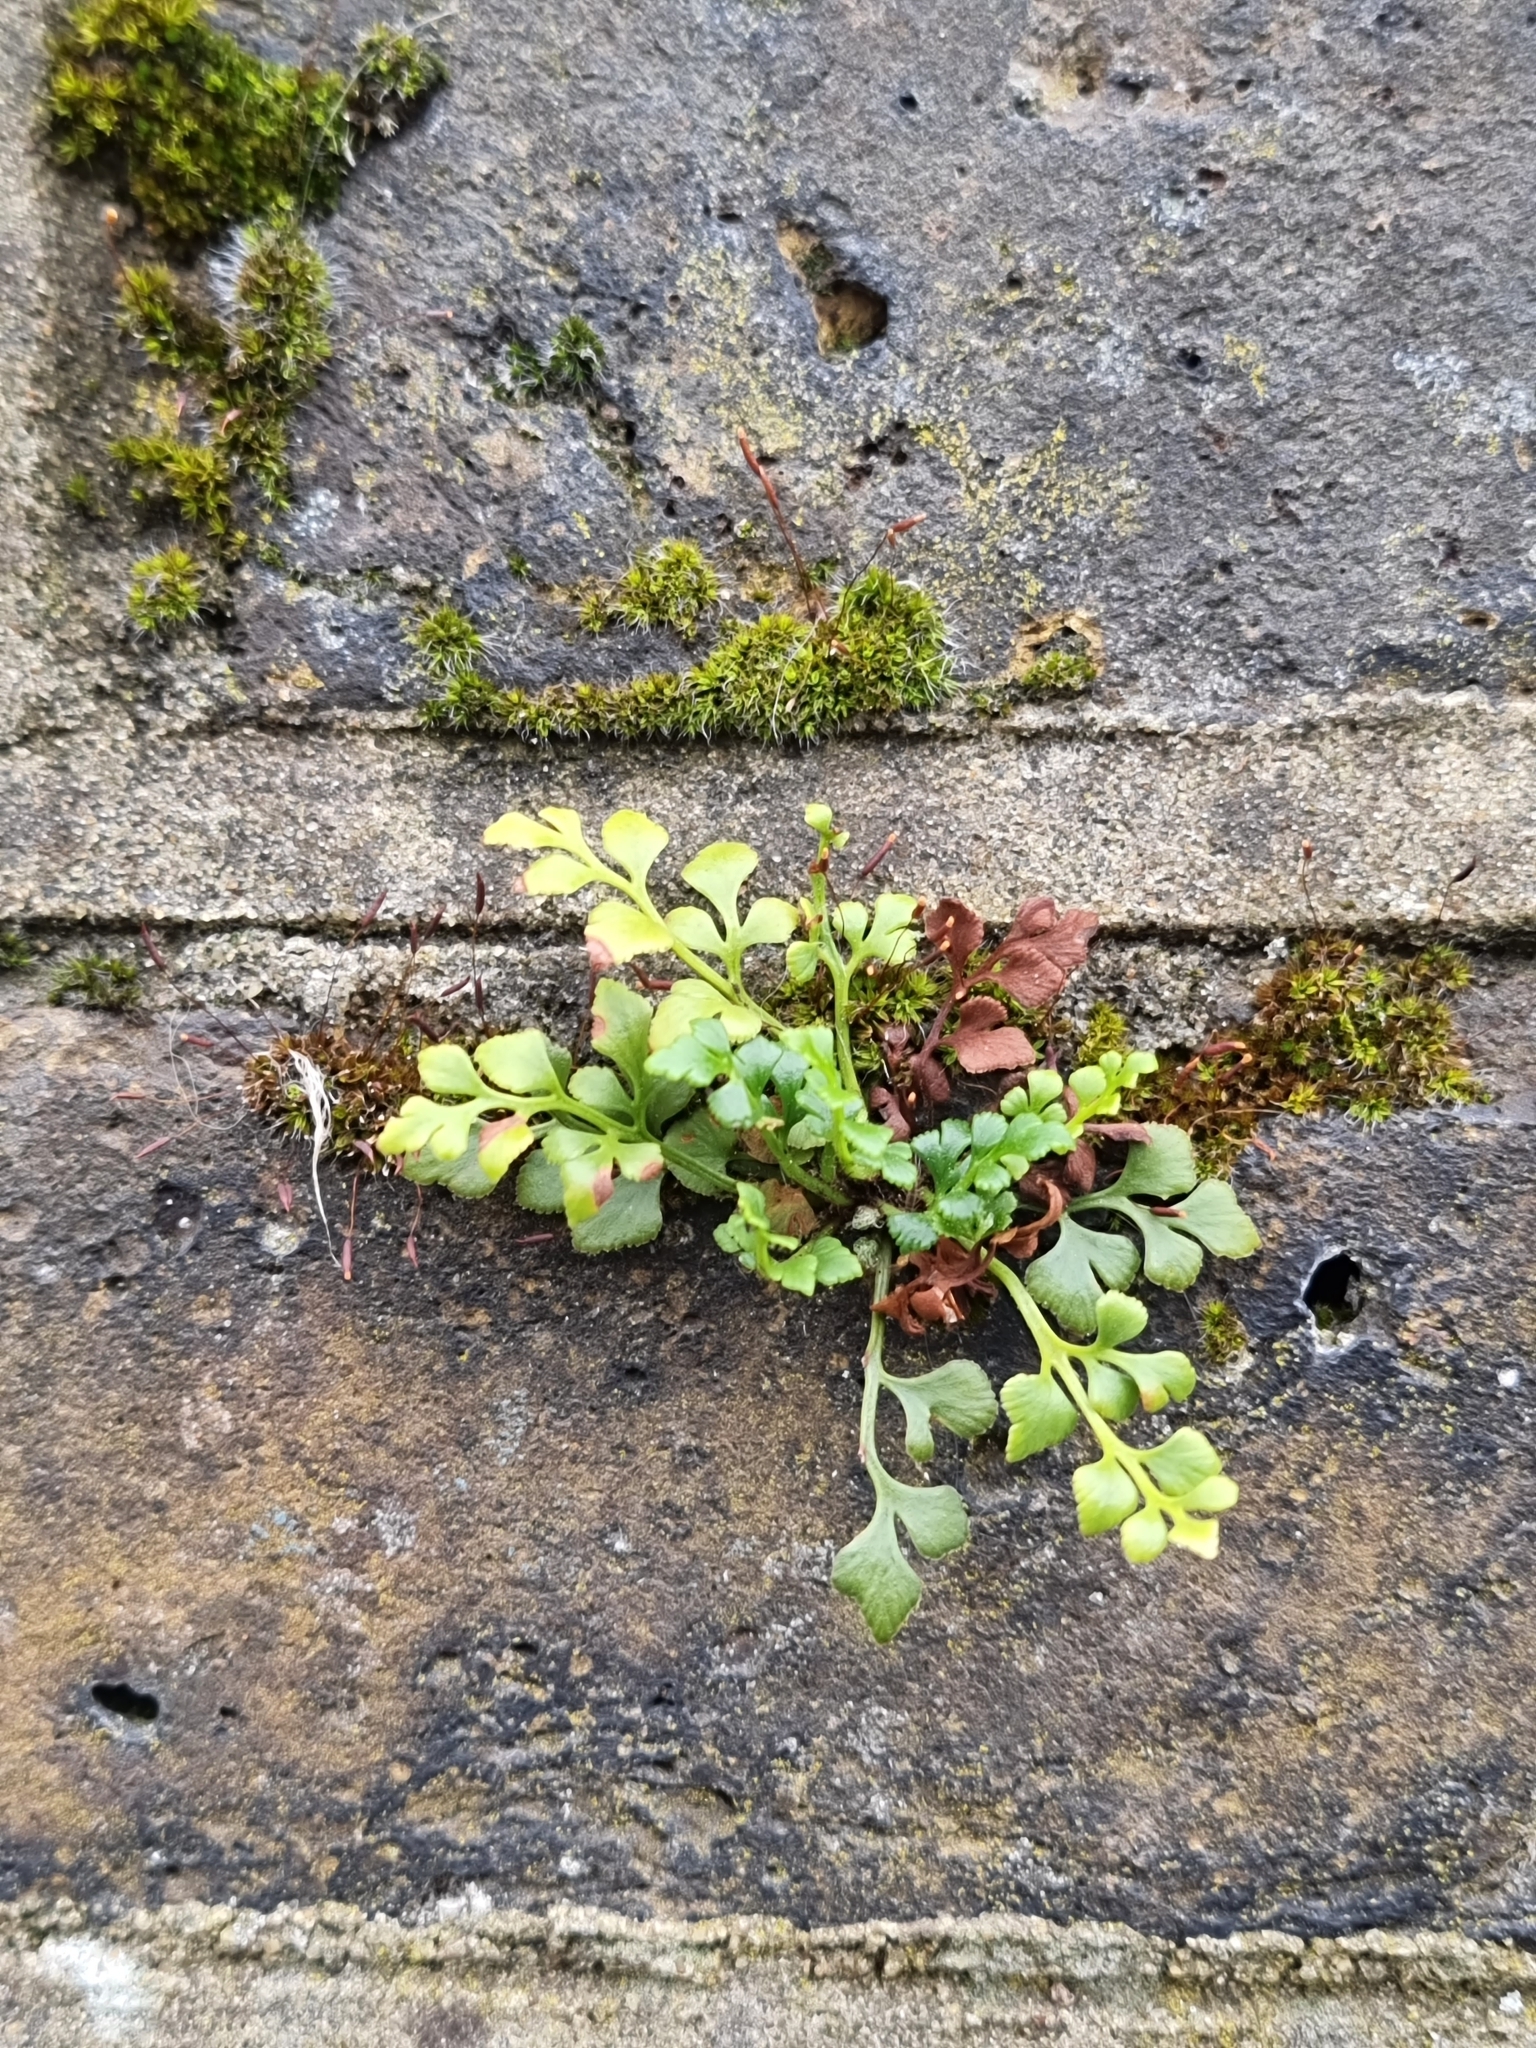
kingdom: Plantae
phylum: Tracheophyta
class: Polypodiopsida
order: Polypodiales
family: Aspleniaceae
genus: Asplenium
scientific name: Asplenium ruta-muraria
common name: Wall-rue
